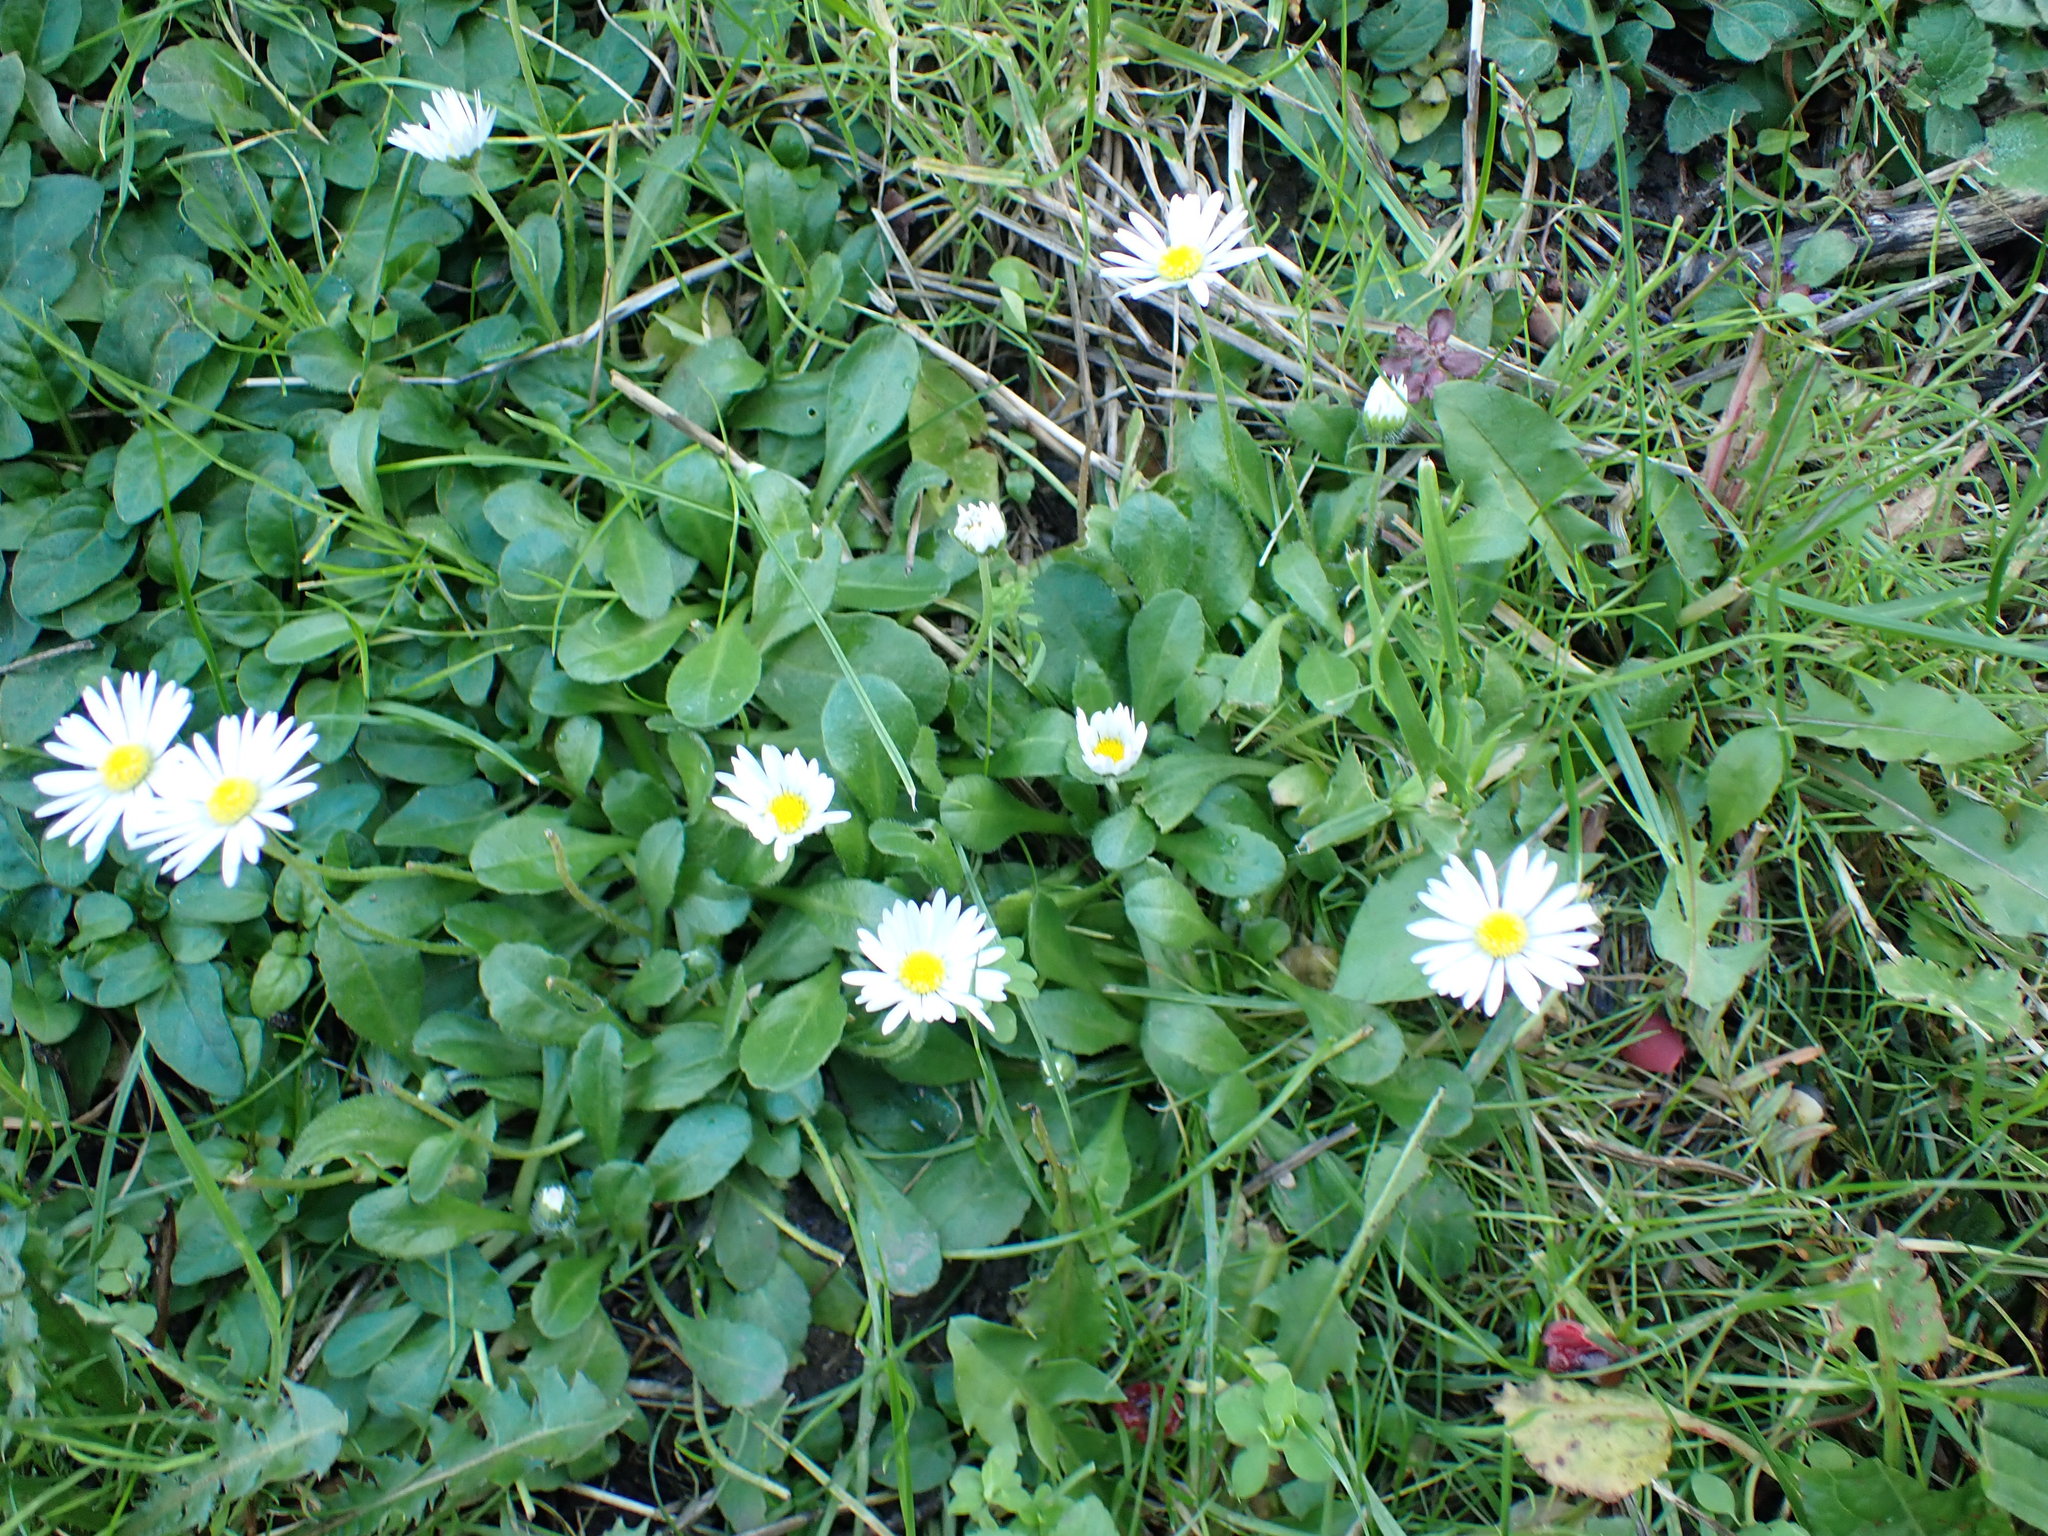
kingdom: Plantae
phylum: Tracheophyta
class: Magnoliopsida
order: Asterales
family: Asteraceae
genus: Bellis
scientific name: Bellis perennis
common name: Lawndaisy
